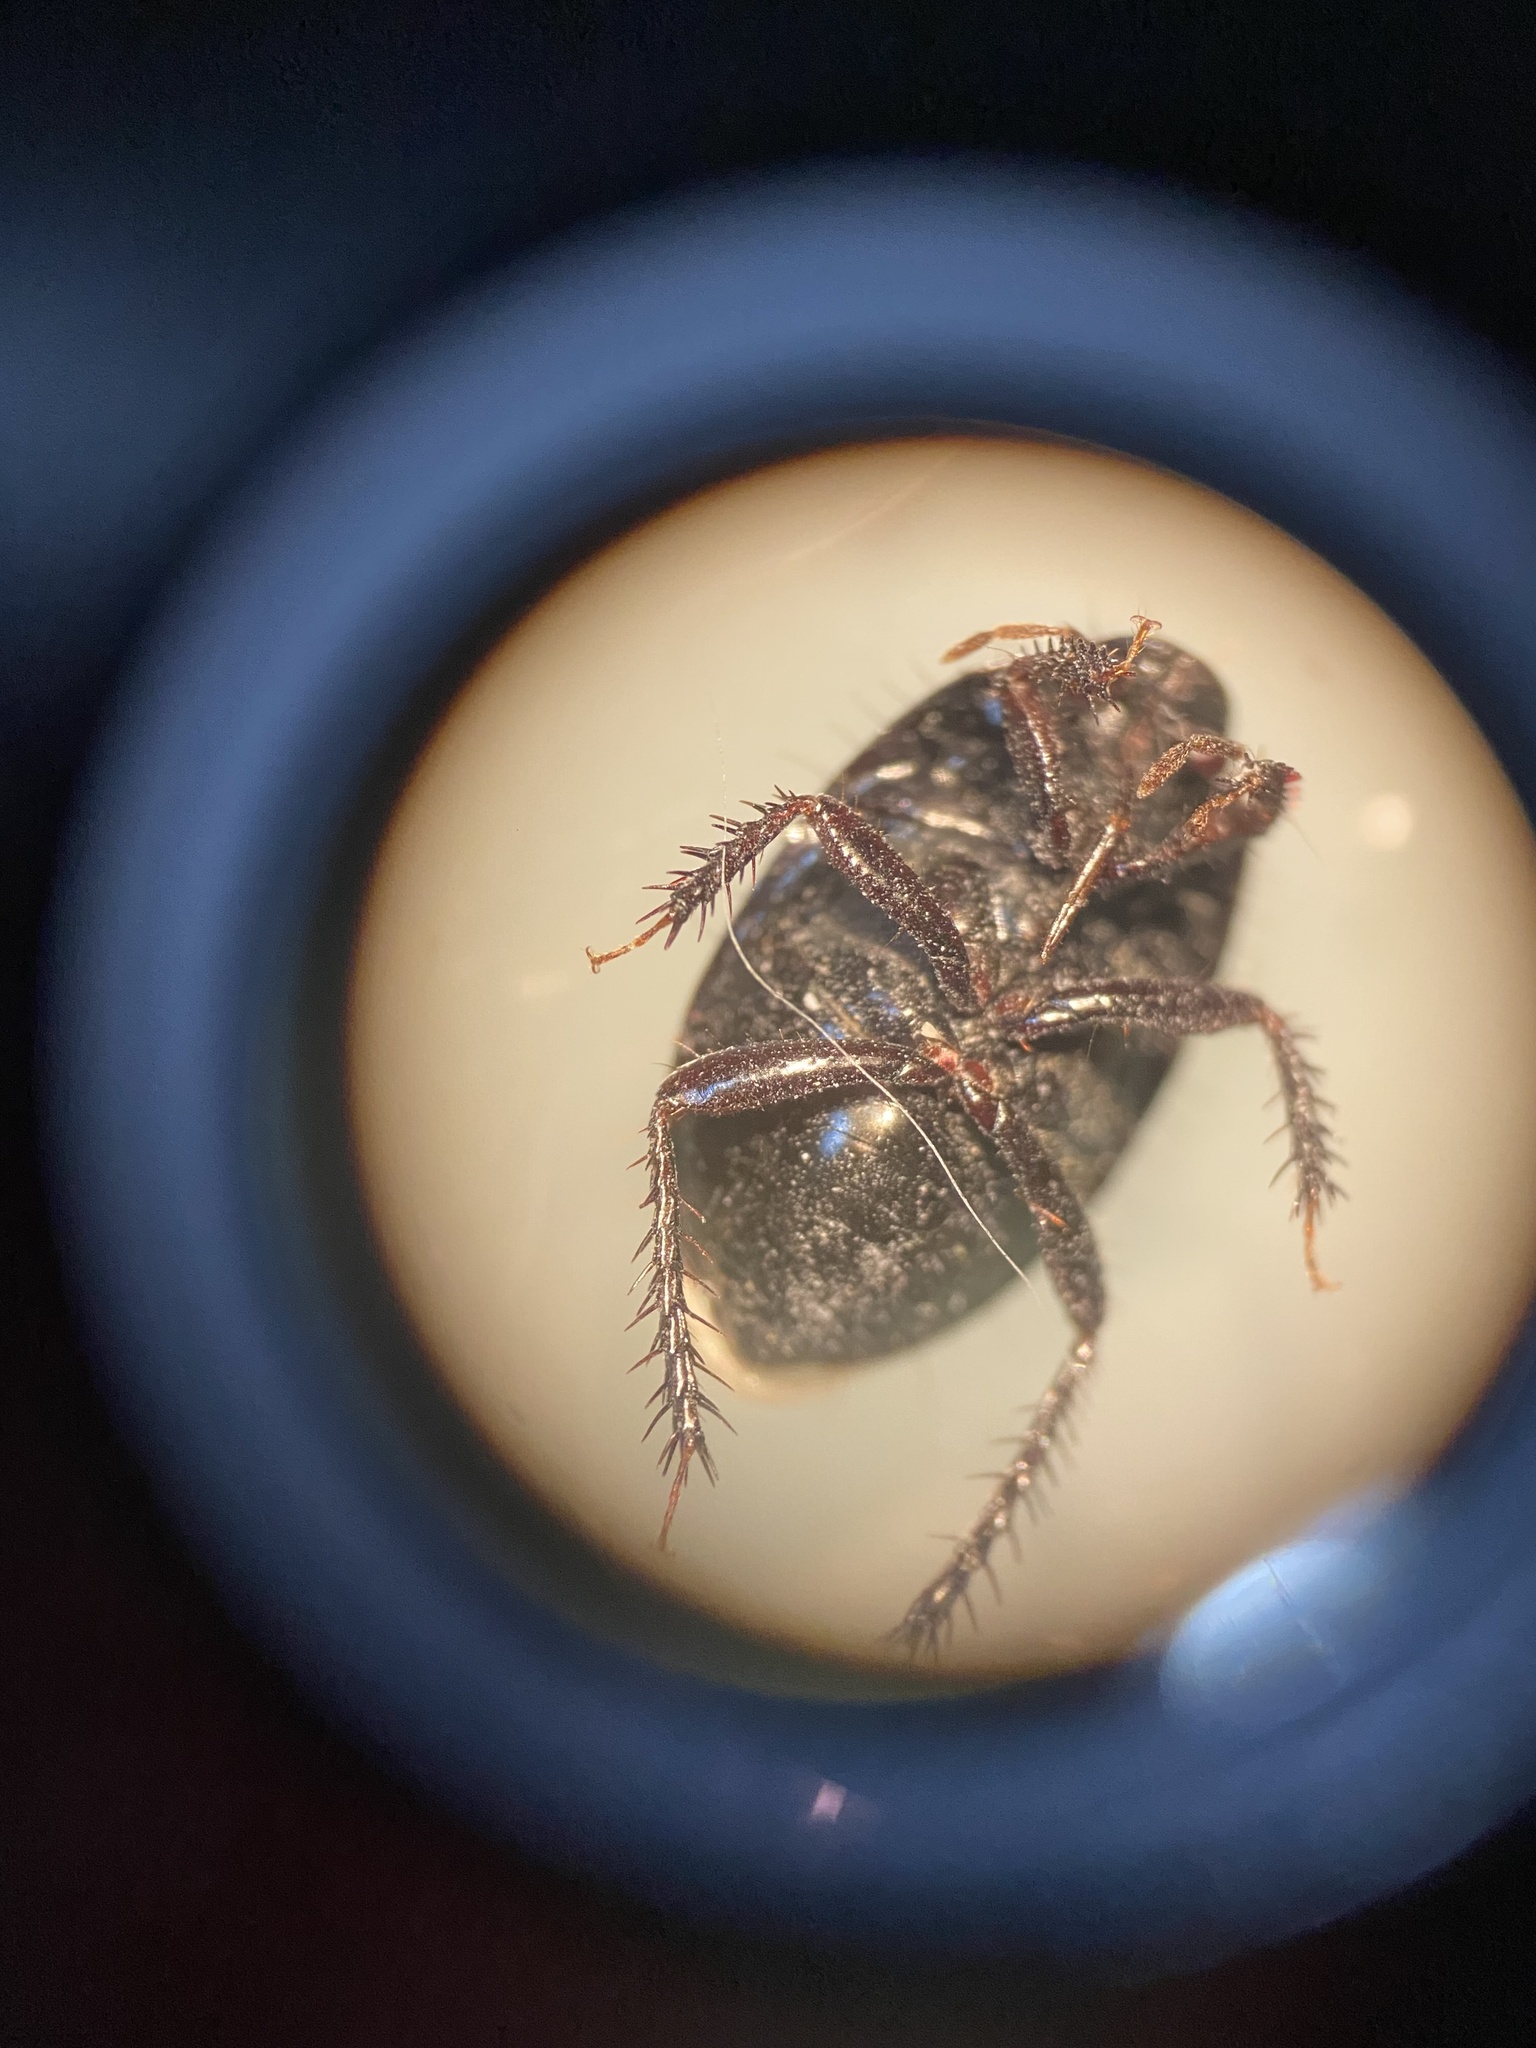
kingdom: Animalia
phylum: Arthropoda
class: Insecta
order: Hemiptera
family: Cydnidae
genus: Pangaeus
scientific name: Pangaeus bilineatus
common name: Burrower bug
